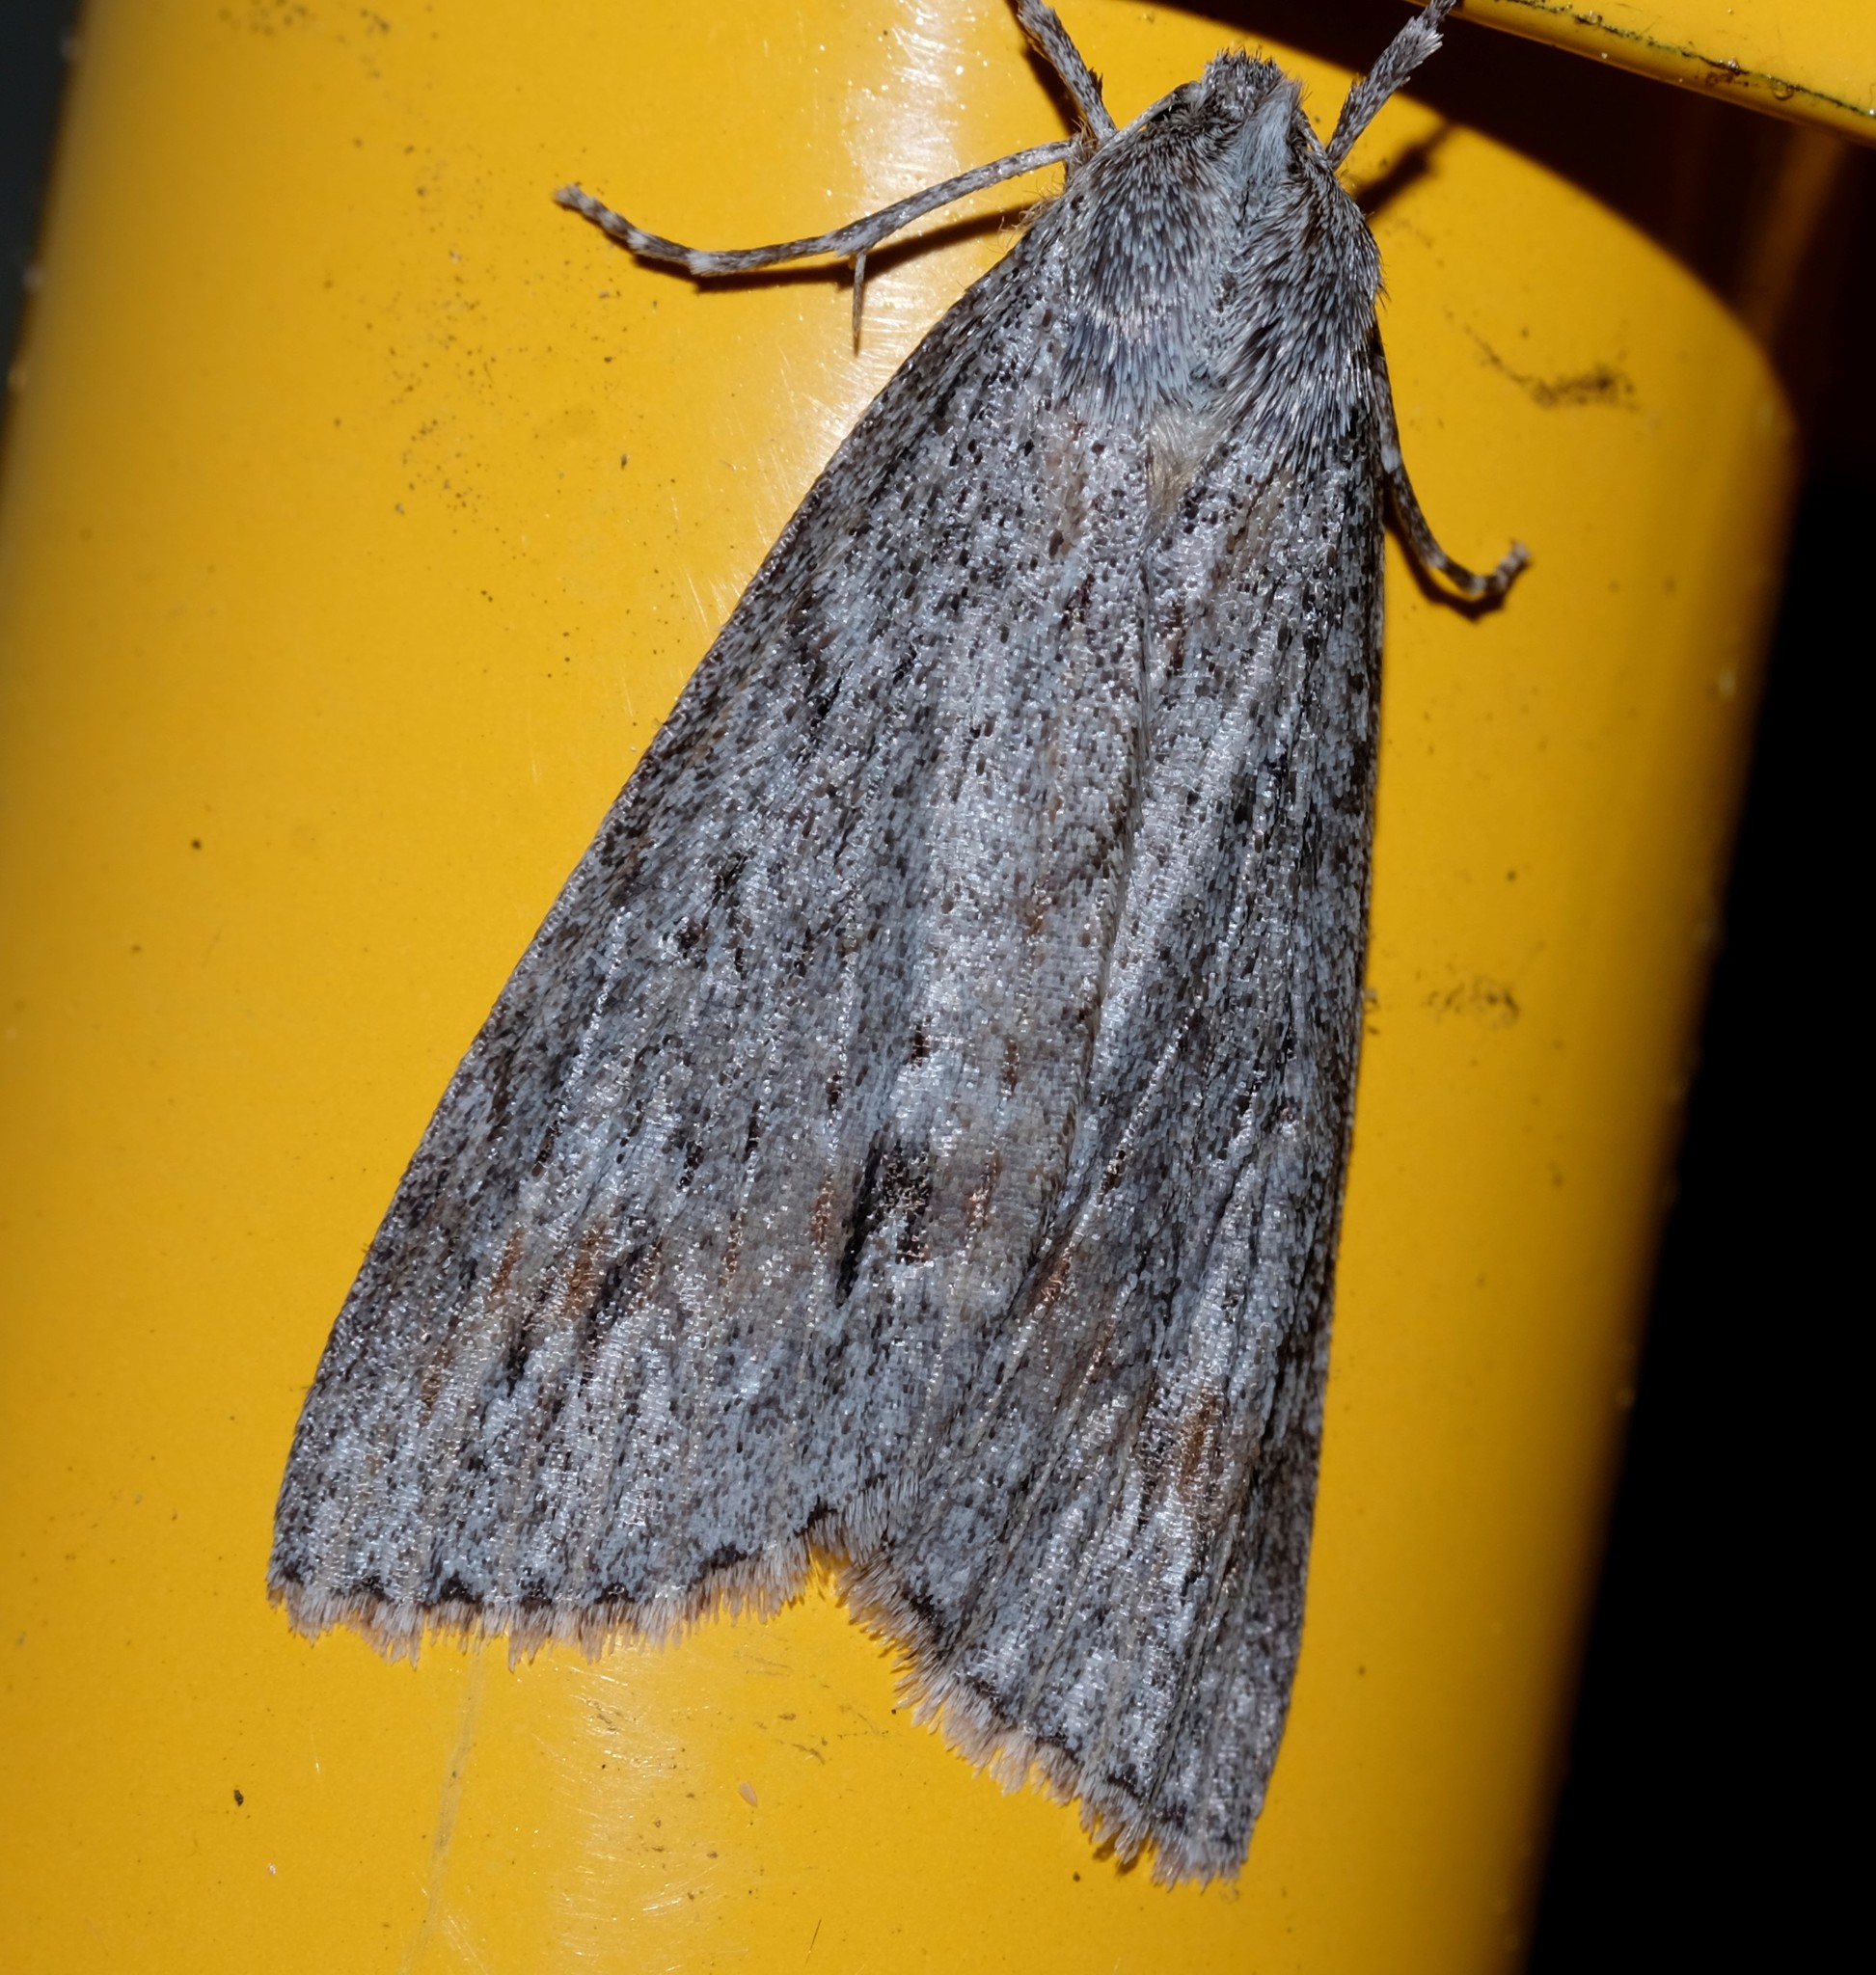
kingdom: Animalia
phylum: Arthropoda
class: Insecta
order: Lepidoptera
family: Geometridae
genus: Chlenias
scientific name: Chlenias banksiaria
